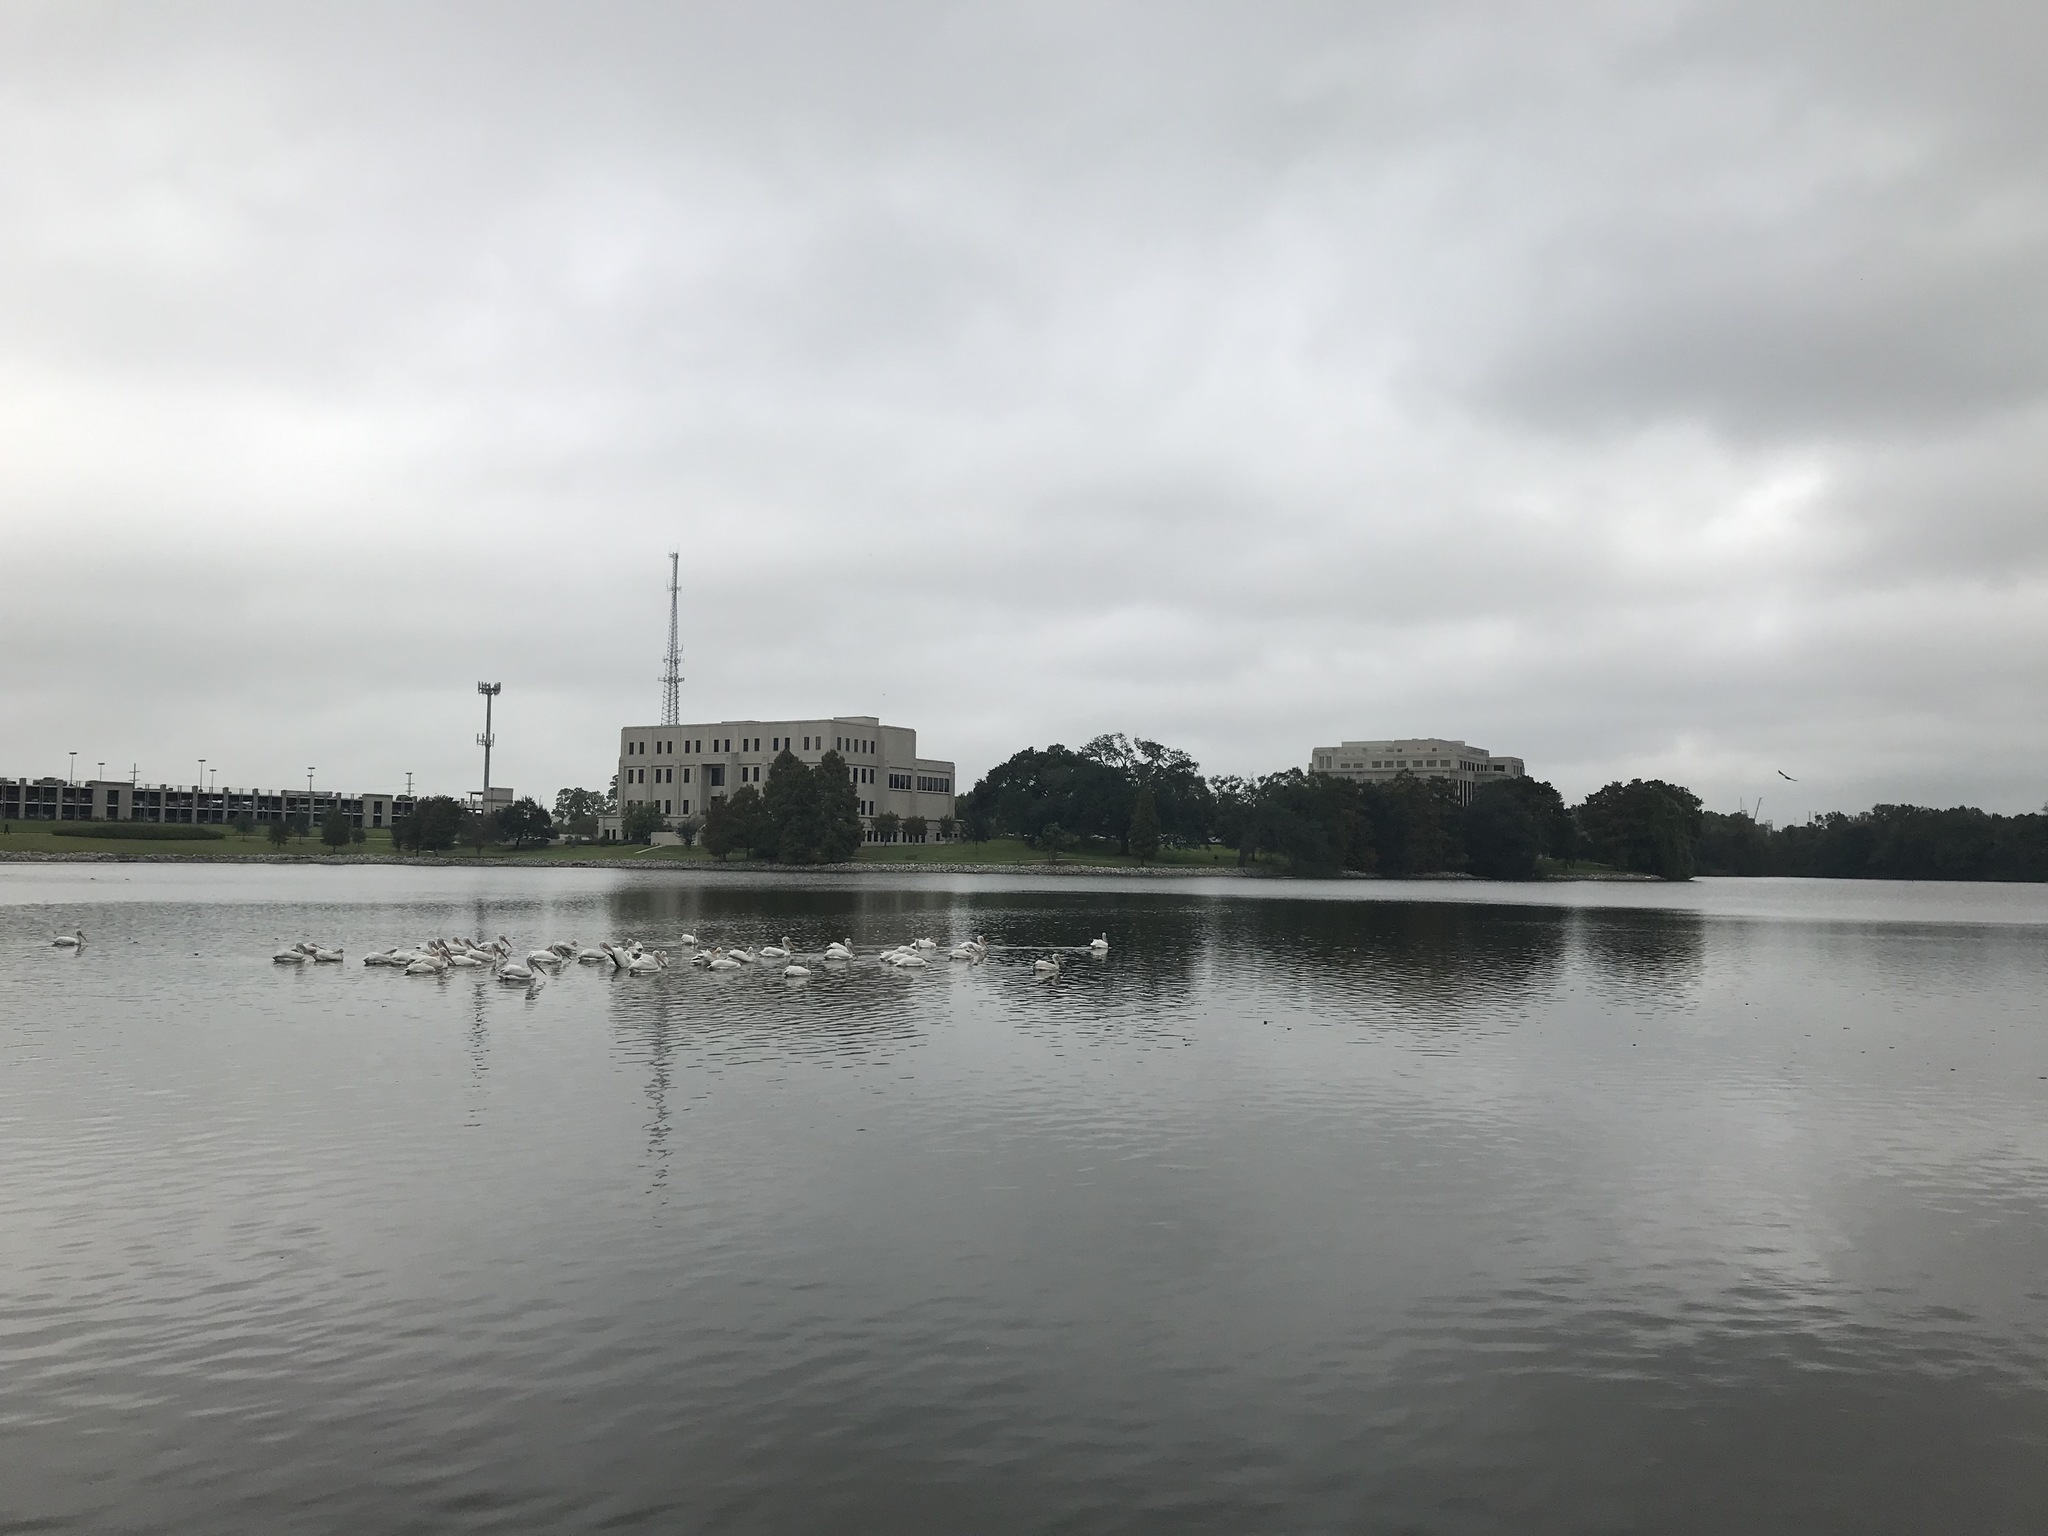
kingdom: Animalia
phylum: Chordata
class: Aves
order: Pelecaniformes
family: Pelecanidae
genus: Pelecanus
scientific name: Pelecanus erythrorhynchos
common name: American white pelican
